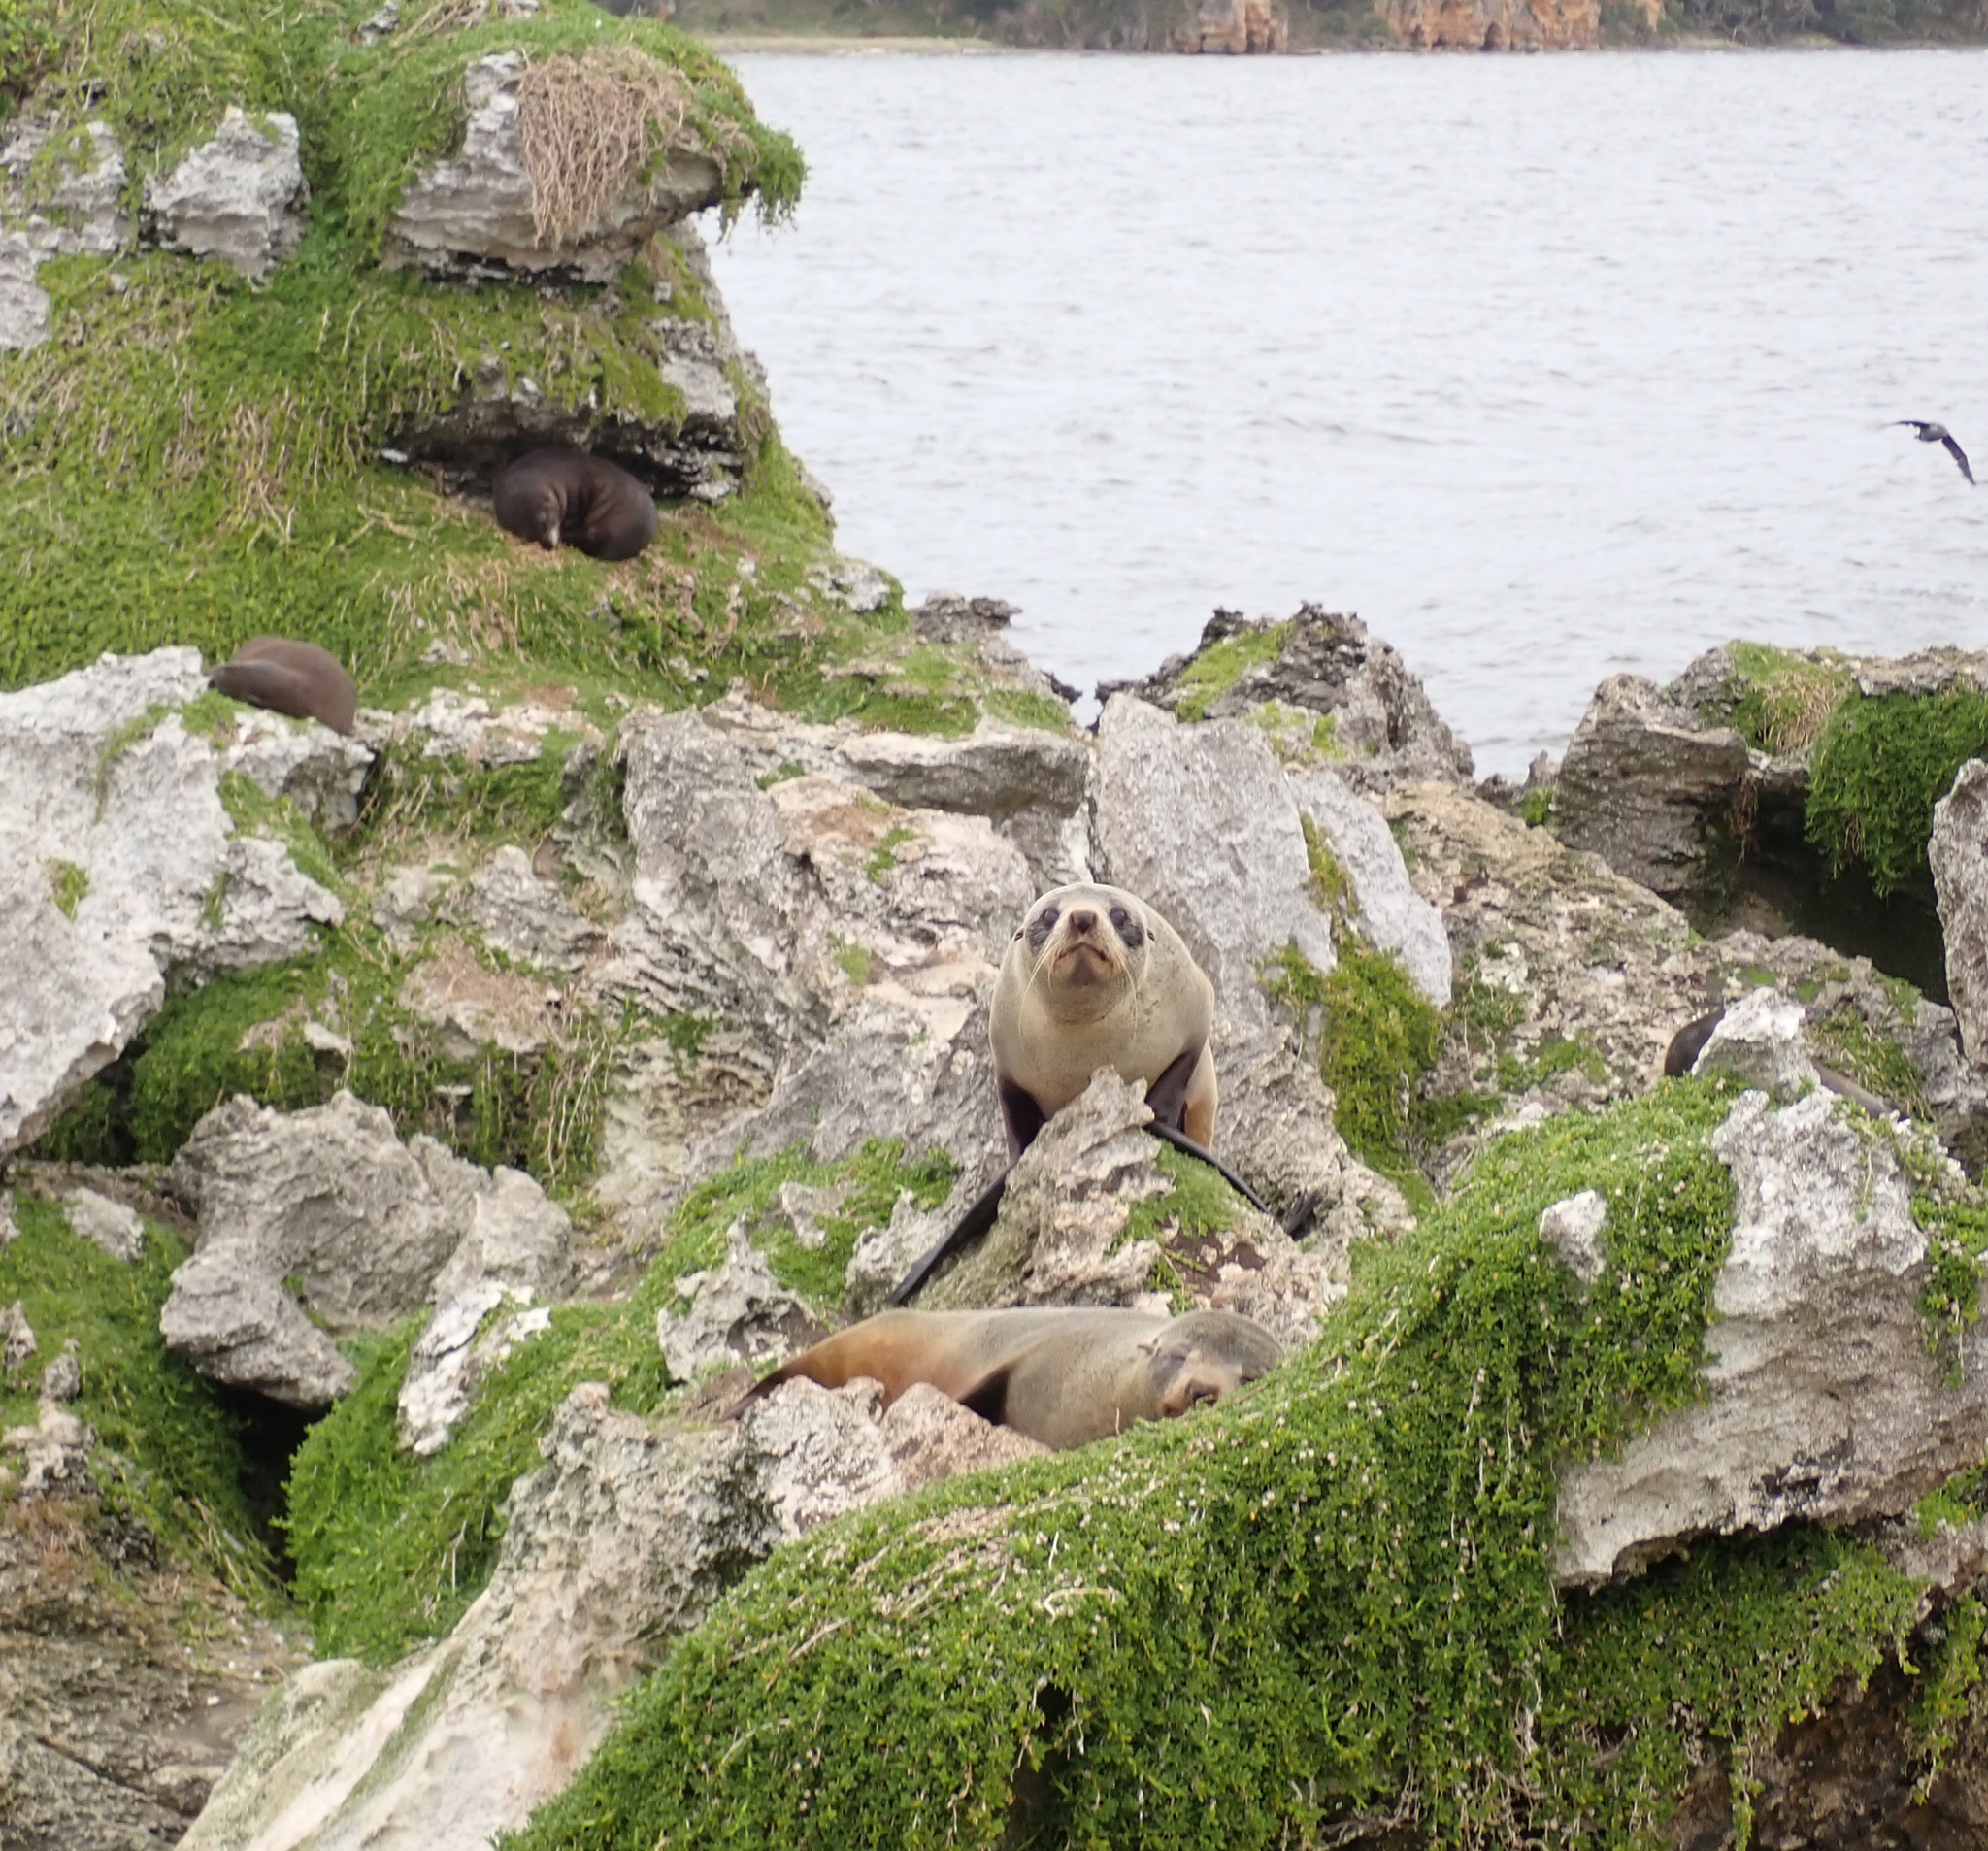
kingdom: Animalia
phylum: Chordata
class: Mammalia
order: Carnivora
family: Otariidae
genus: Arctocephalus
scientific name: Arctocephalus forsteri
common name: New zealand fur seal
